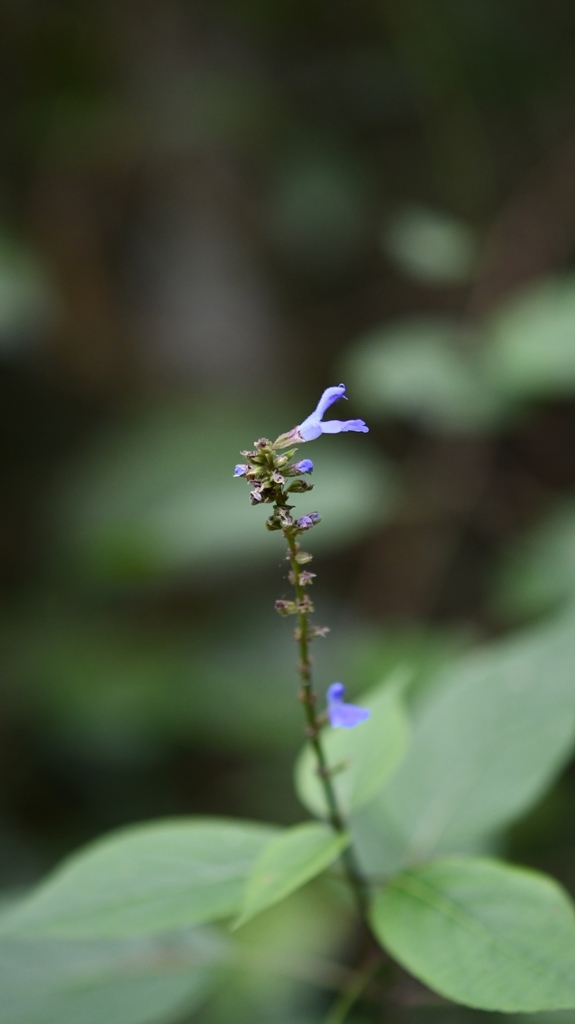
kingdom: Plantae
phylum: Tracheophyta
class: Magnoliopsida
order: Lamiales
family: Lamiaceae
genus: Salvia
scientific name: Salvia connivens
